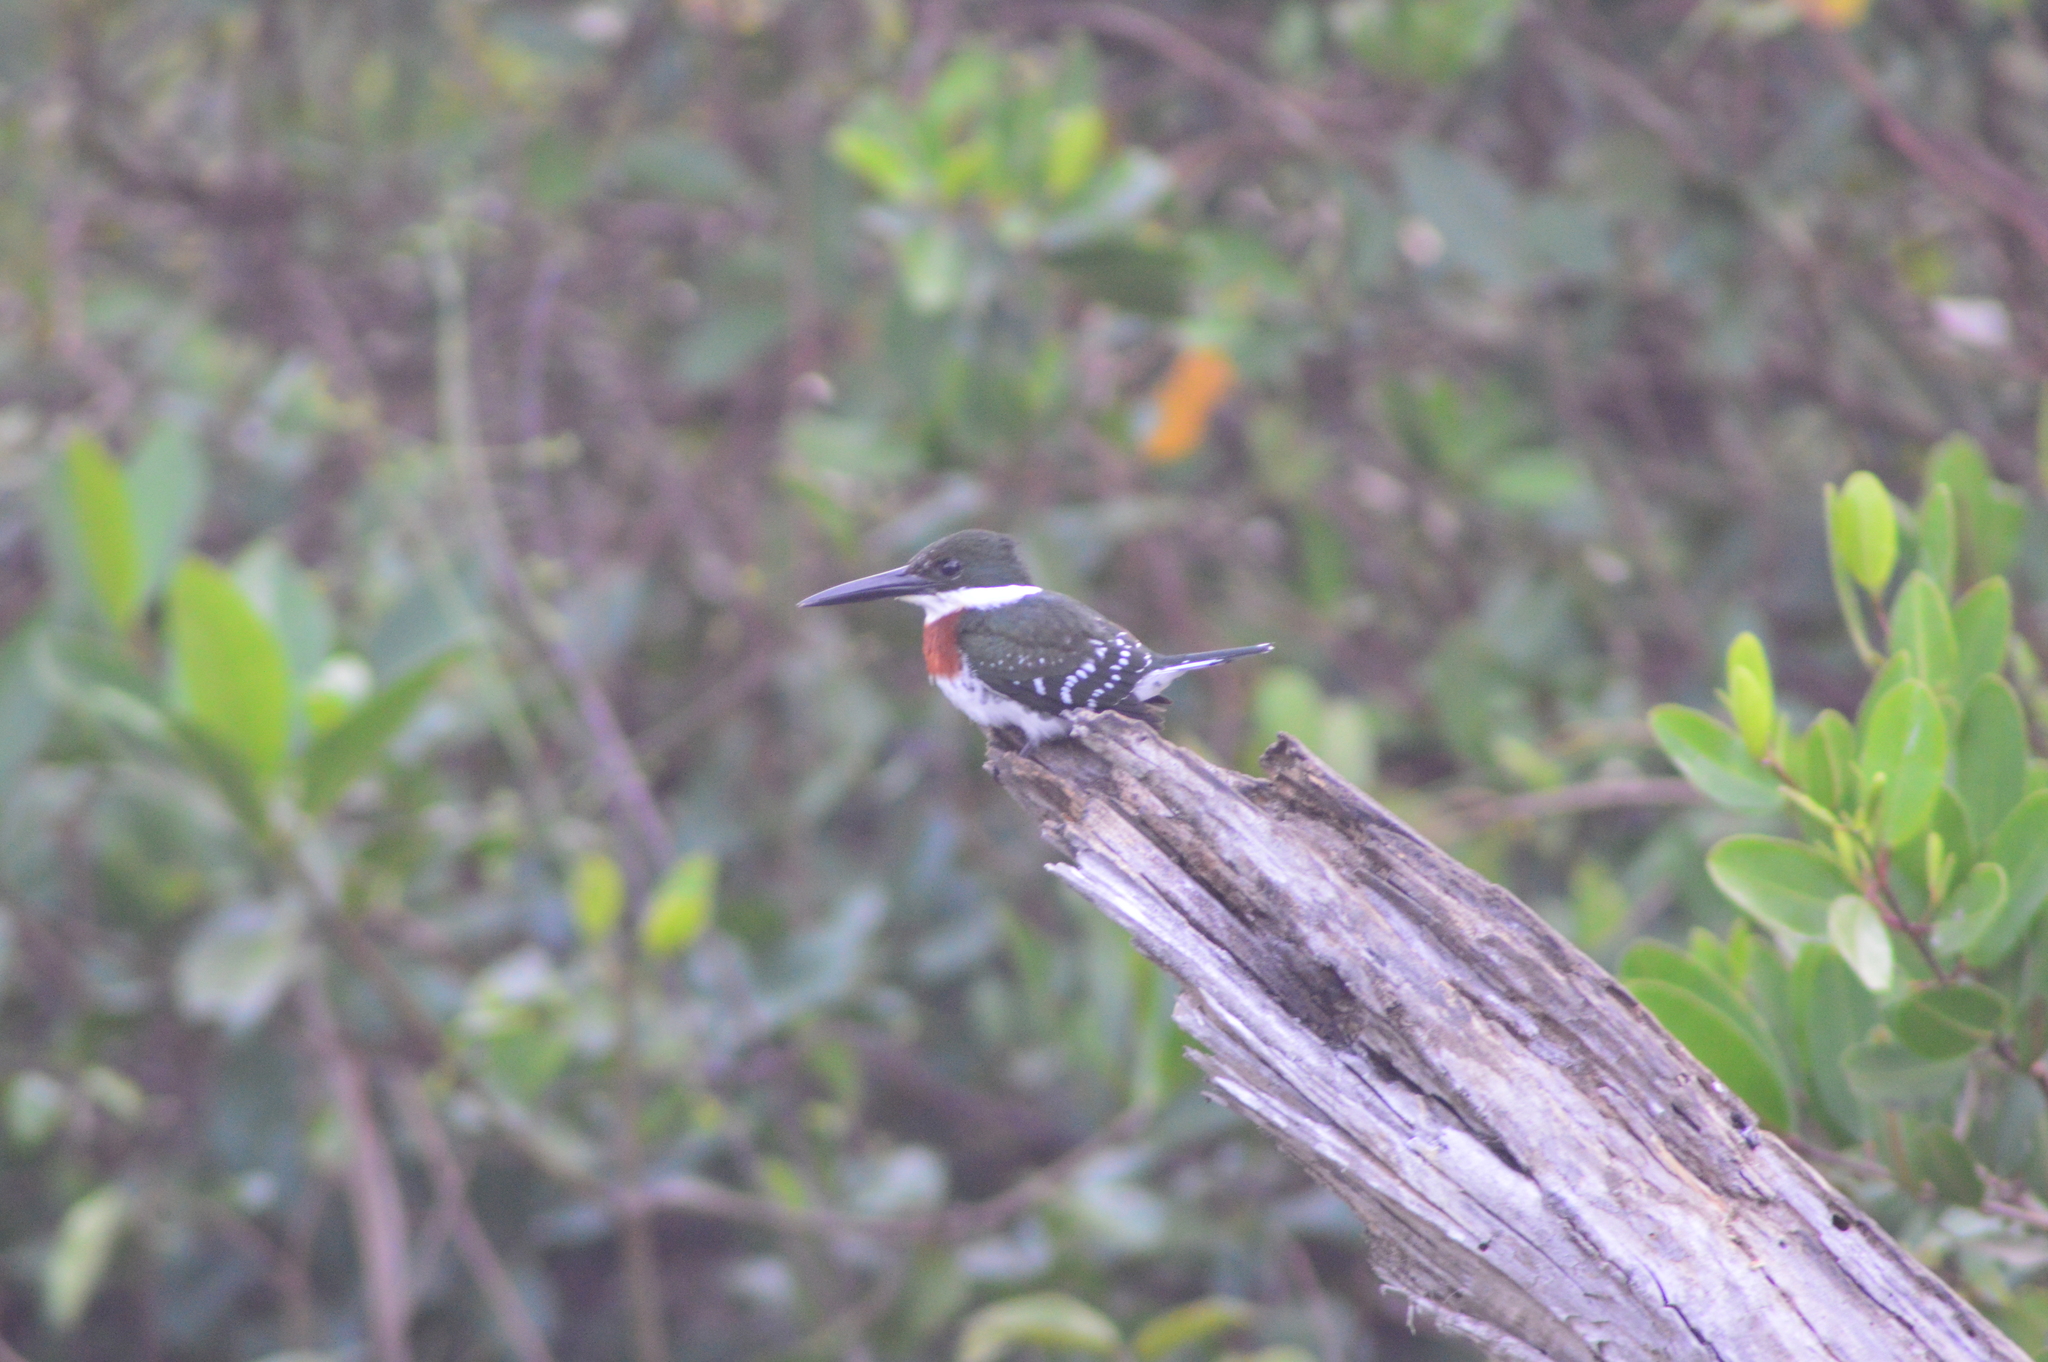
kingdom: Animalia
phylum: Chordata
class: Aves
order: Coraciiformes
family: Alcedinidae
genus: Chloroceryle
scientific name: Chloroceryle americana
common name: Green kingfisher
